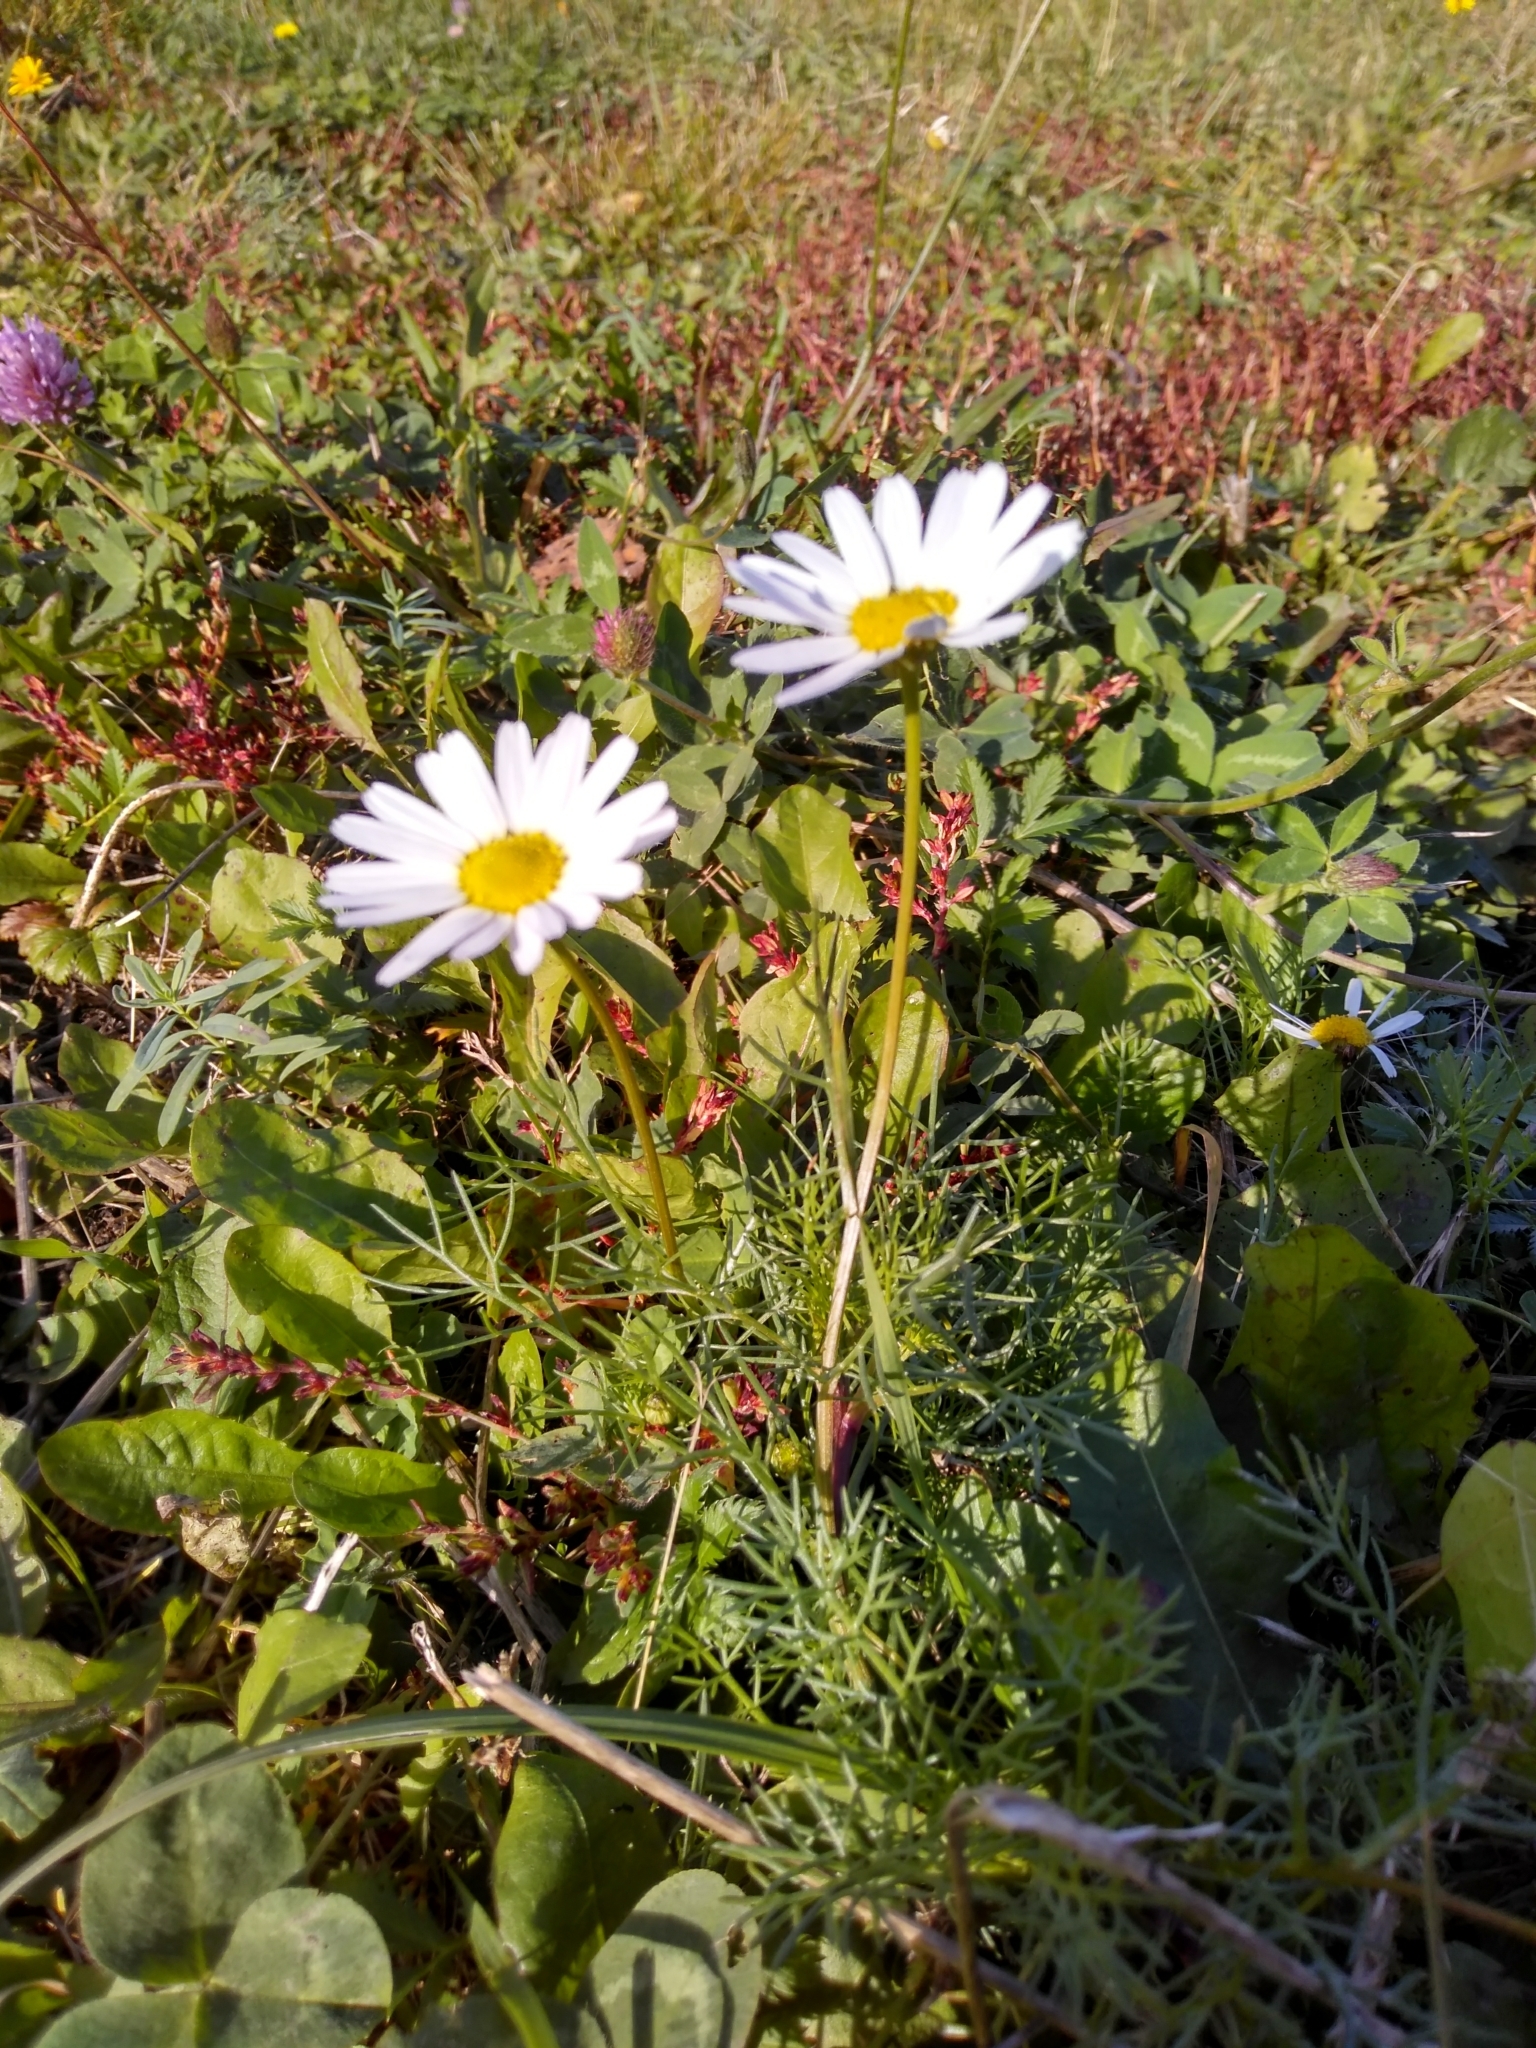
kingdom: Plantae
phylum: Tracheophyta
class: Magnoliopsida
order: Asterales
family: Asteraceae
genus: Tripleurospermum
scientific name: Tripleurospermum inodorum
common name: Scentless mayweed
